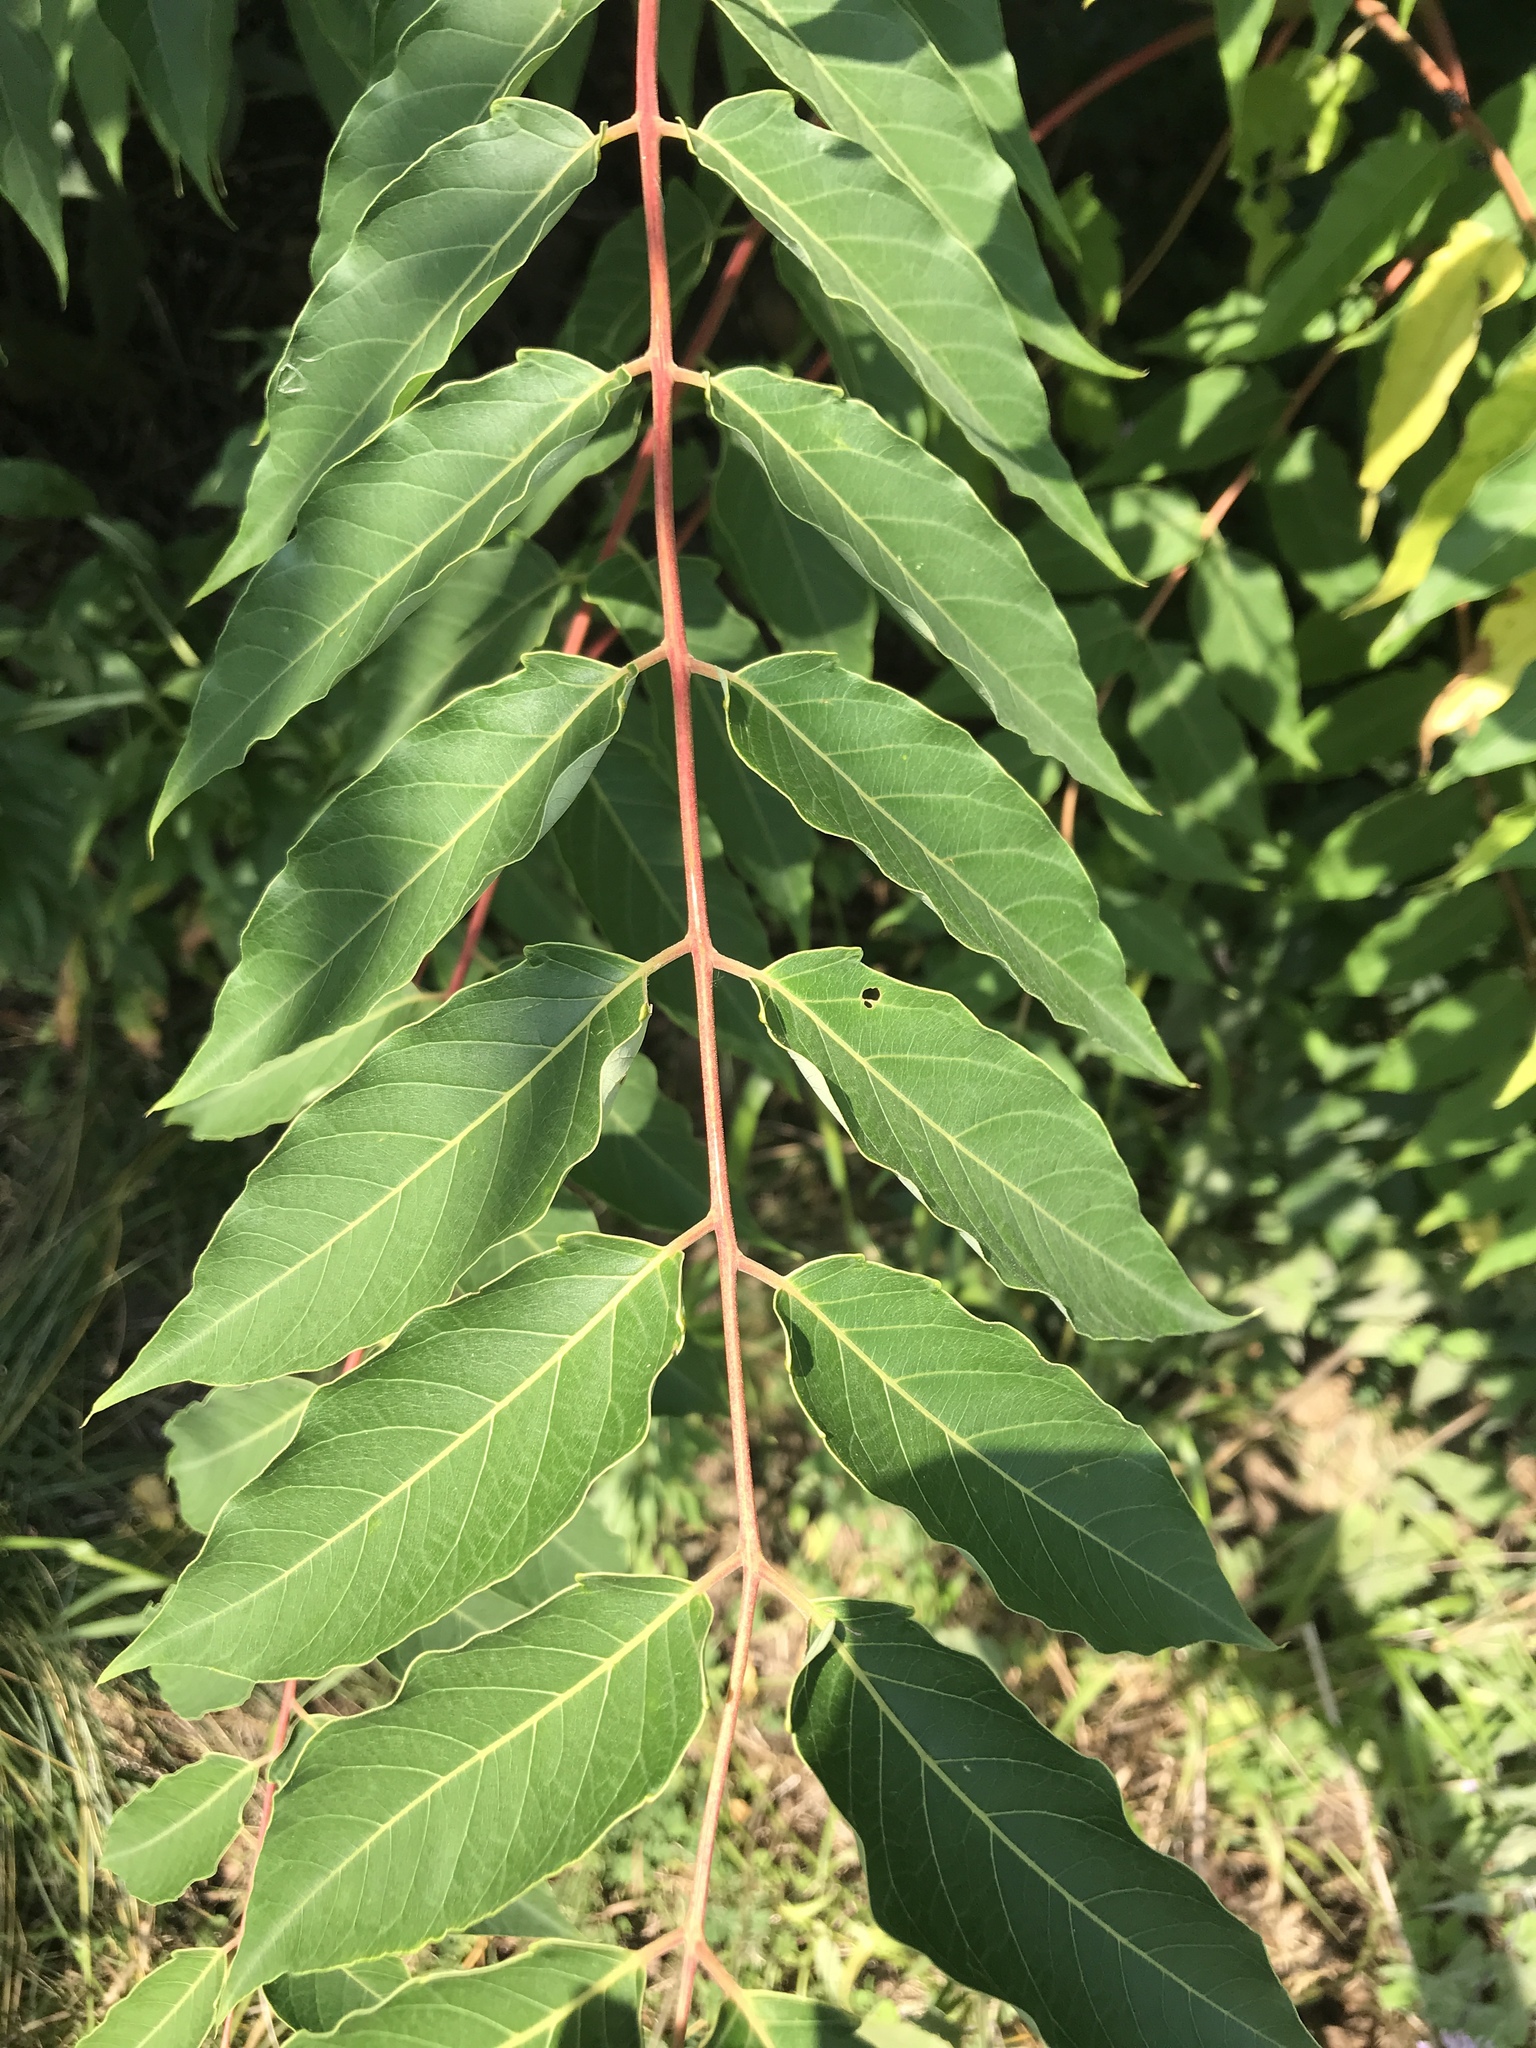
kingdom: Plantae
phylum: Tracheophyta
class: Magnoliopsida
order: Sapindales
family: Simaroubaceae
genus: Ailanthus
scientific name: Ailanthus altissima
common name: Tree-of-heaven
